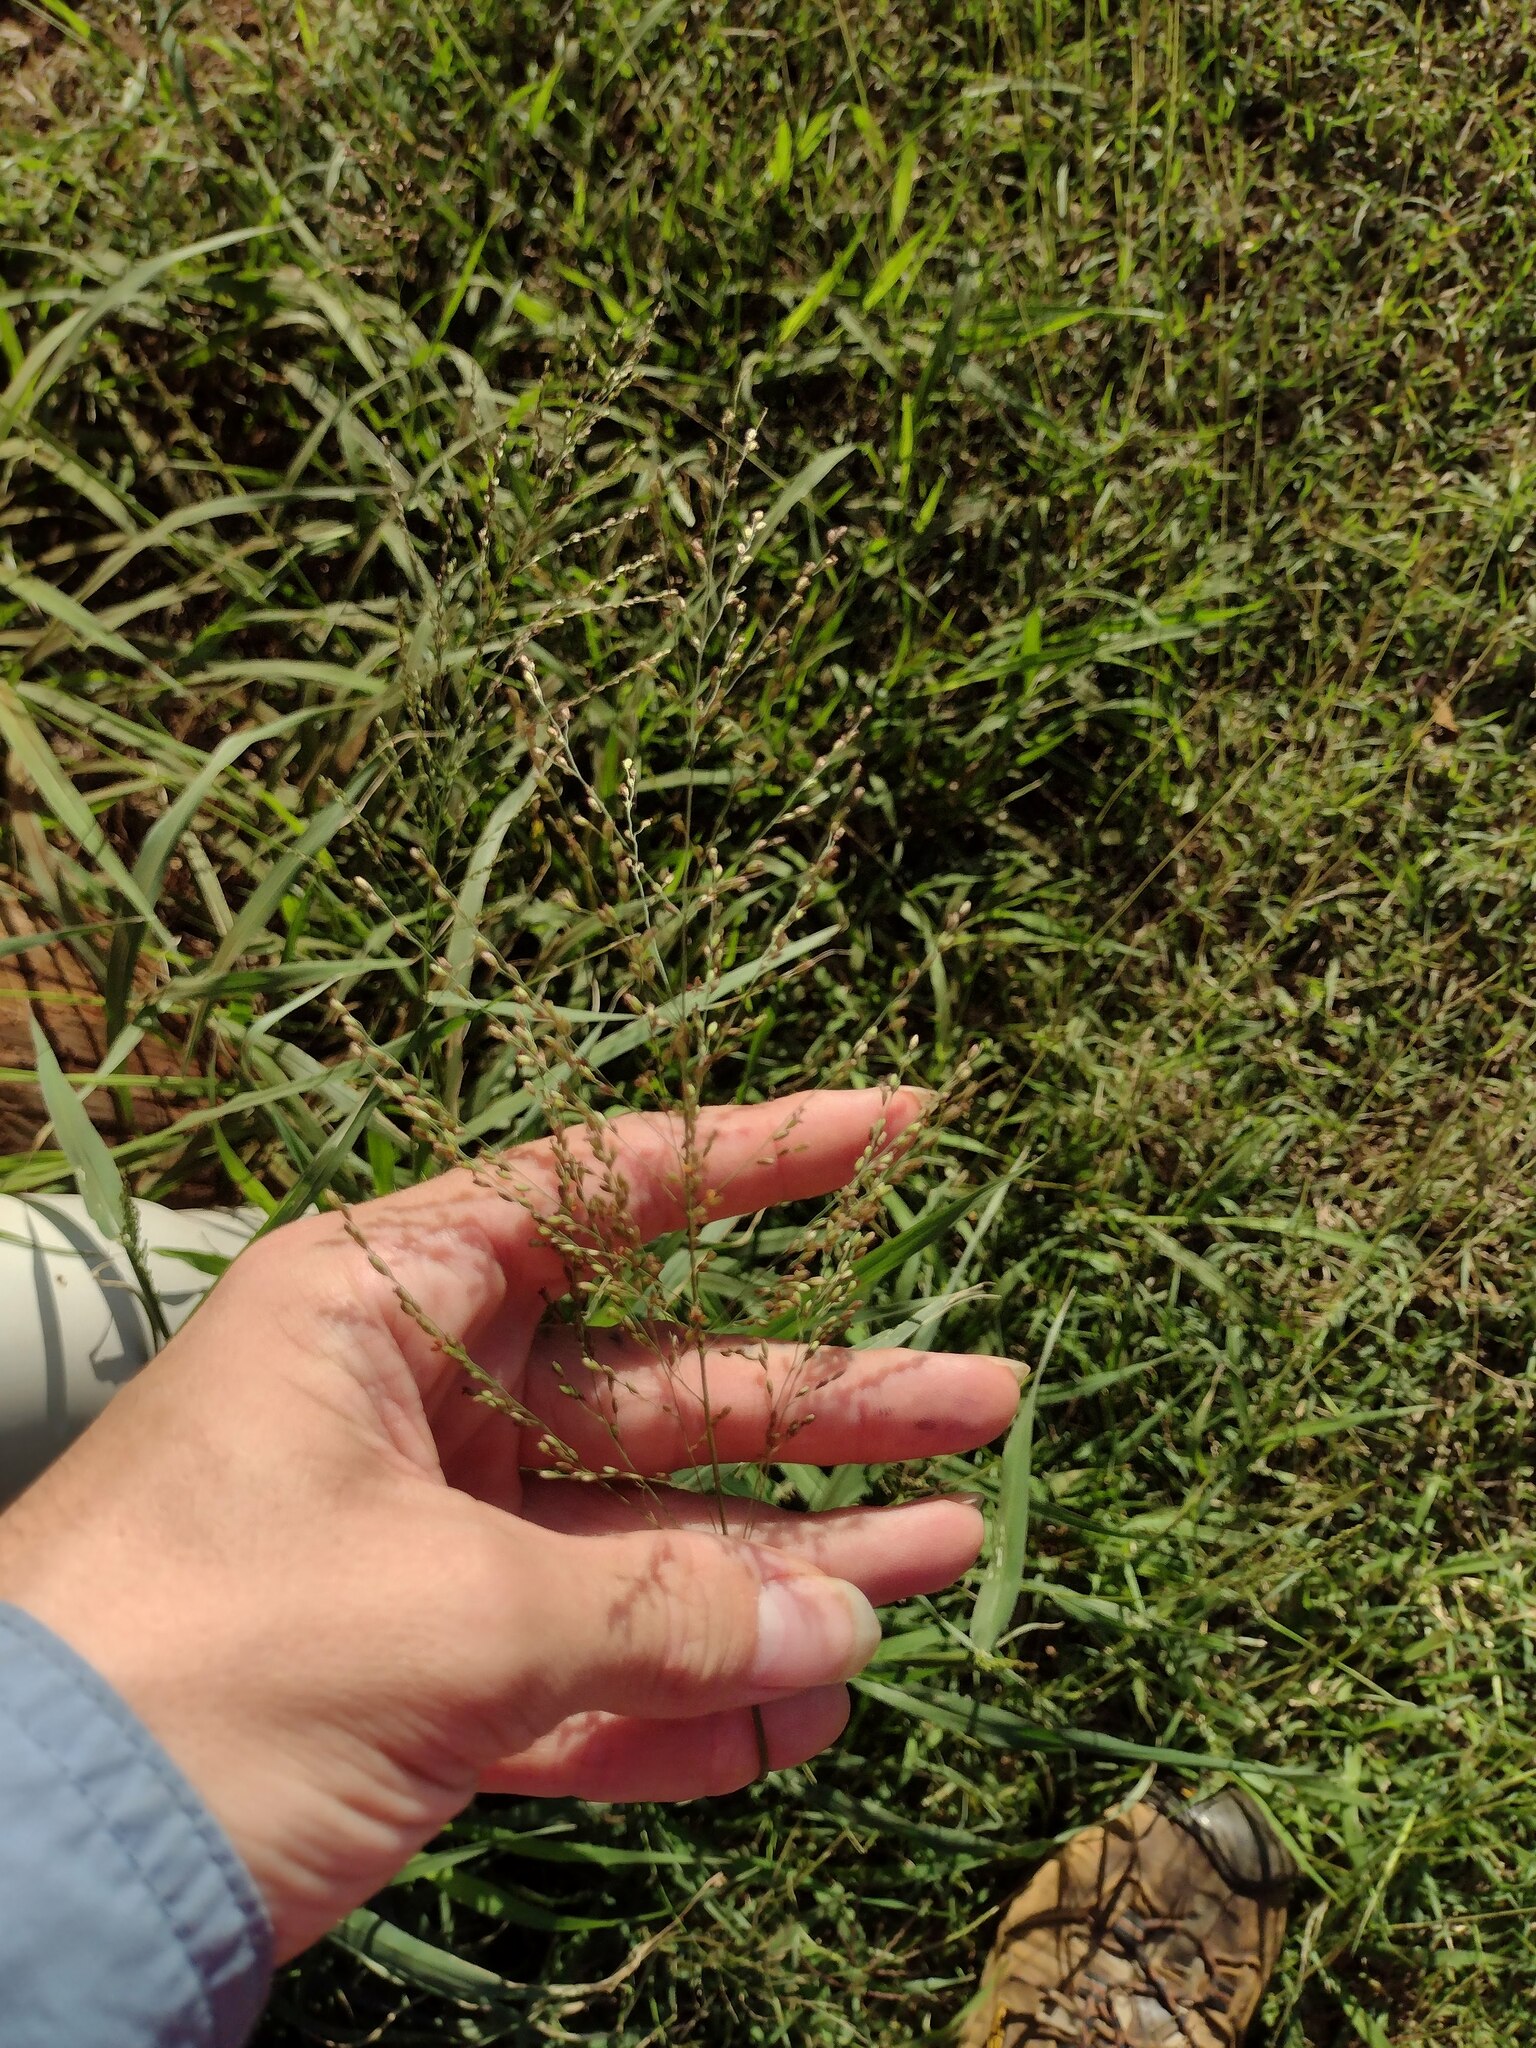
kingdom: Plantae
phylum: Tracheophyta
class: Liliopsida
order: Poales
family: Poaceae
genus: Megathyrsus
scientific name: Megathyrsus maximus
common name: Guineagrass
